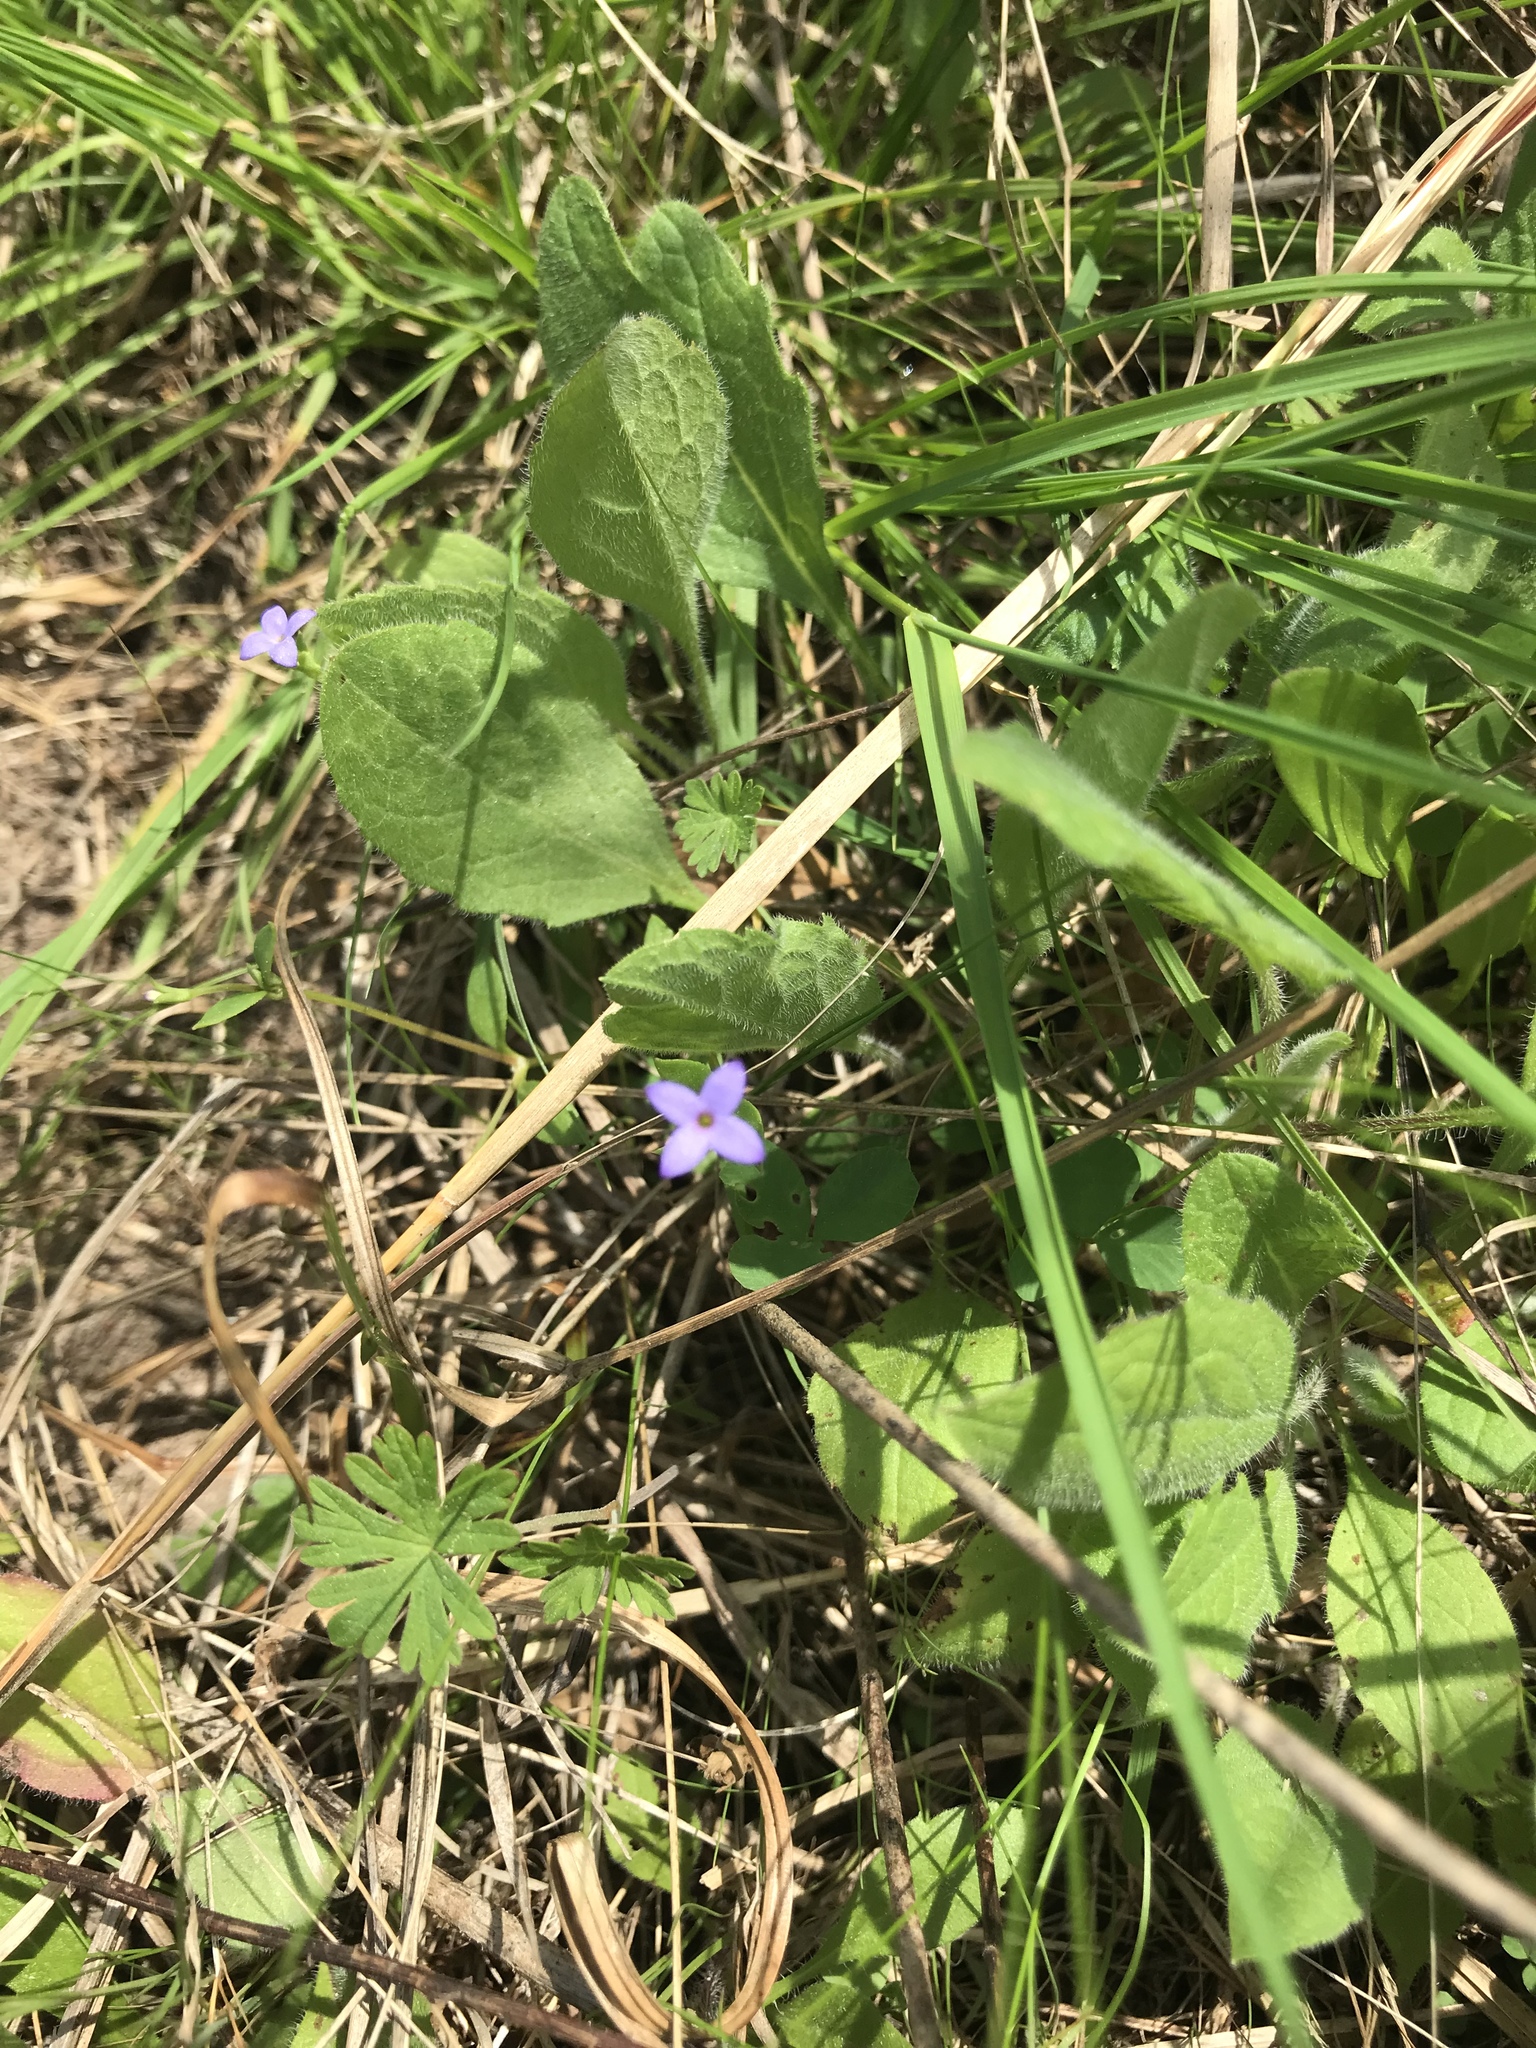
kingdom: Plantae
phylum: Tracheophyta
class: Magnoliopsida
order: Gentianales
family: Rubiaceae
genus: Houstonia
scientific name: Houstonia pusilla
